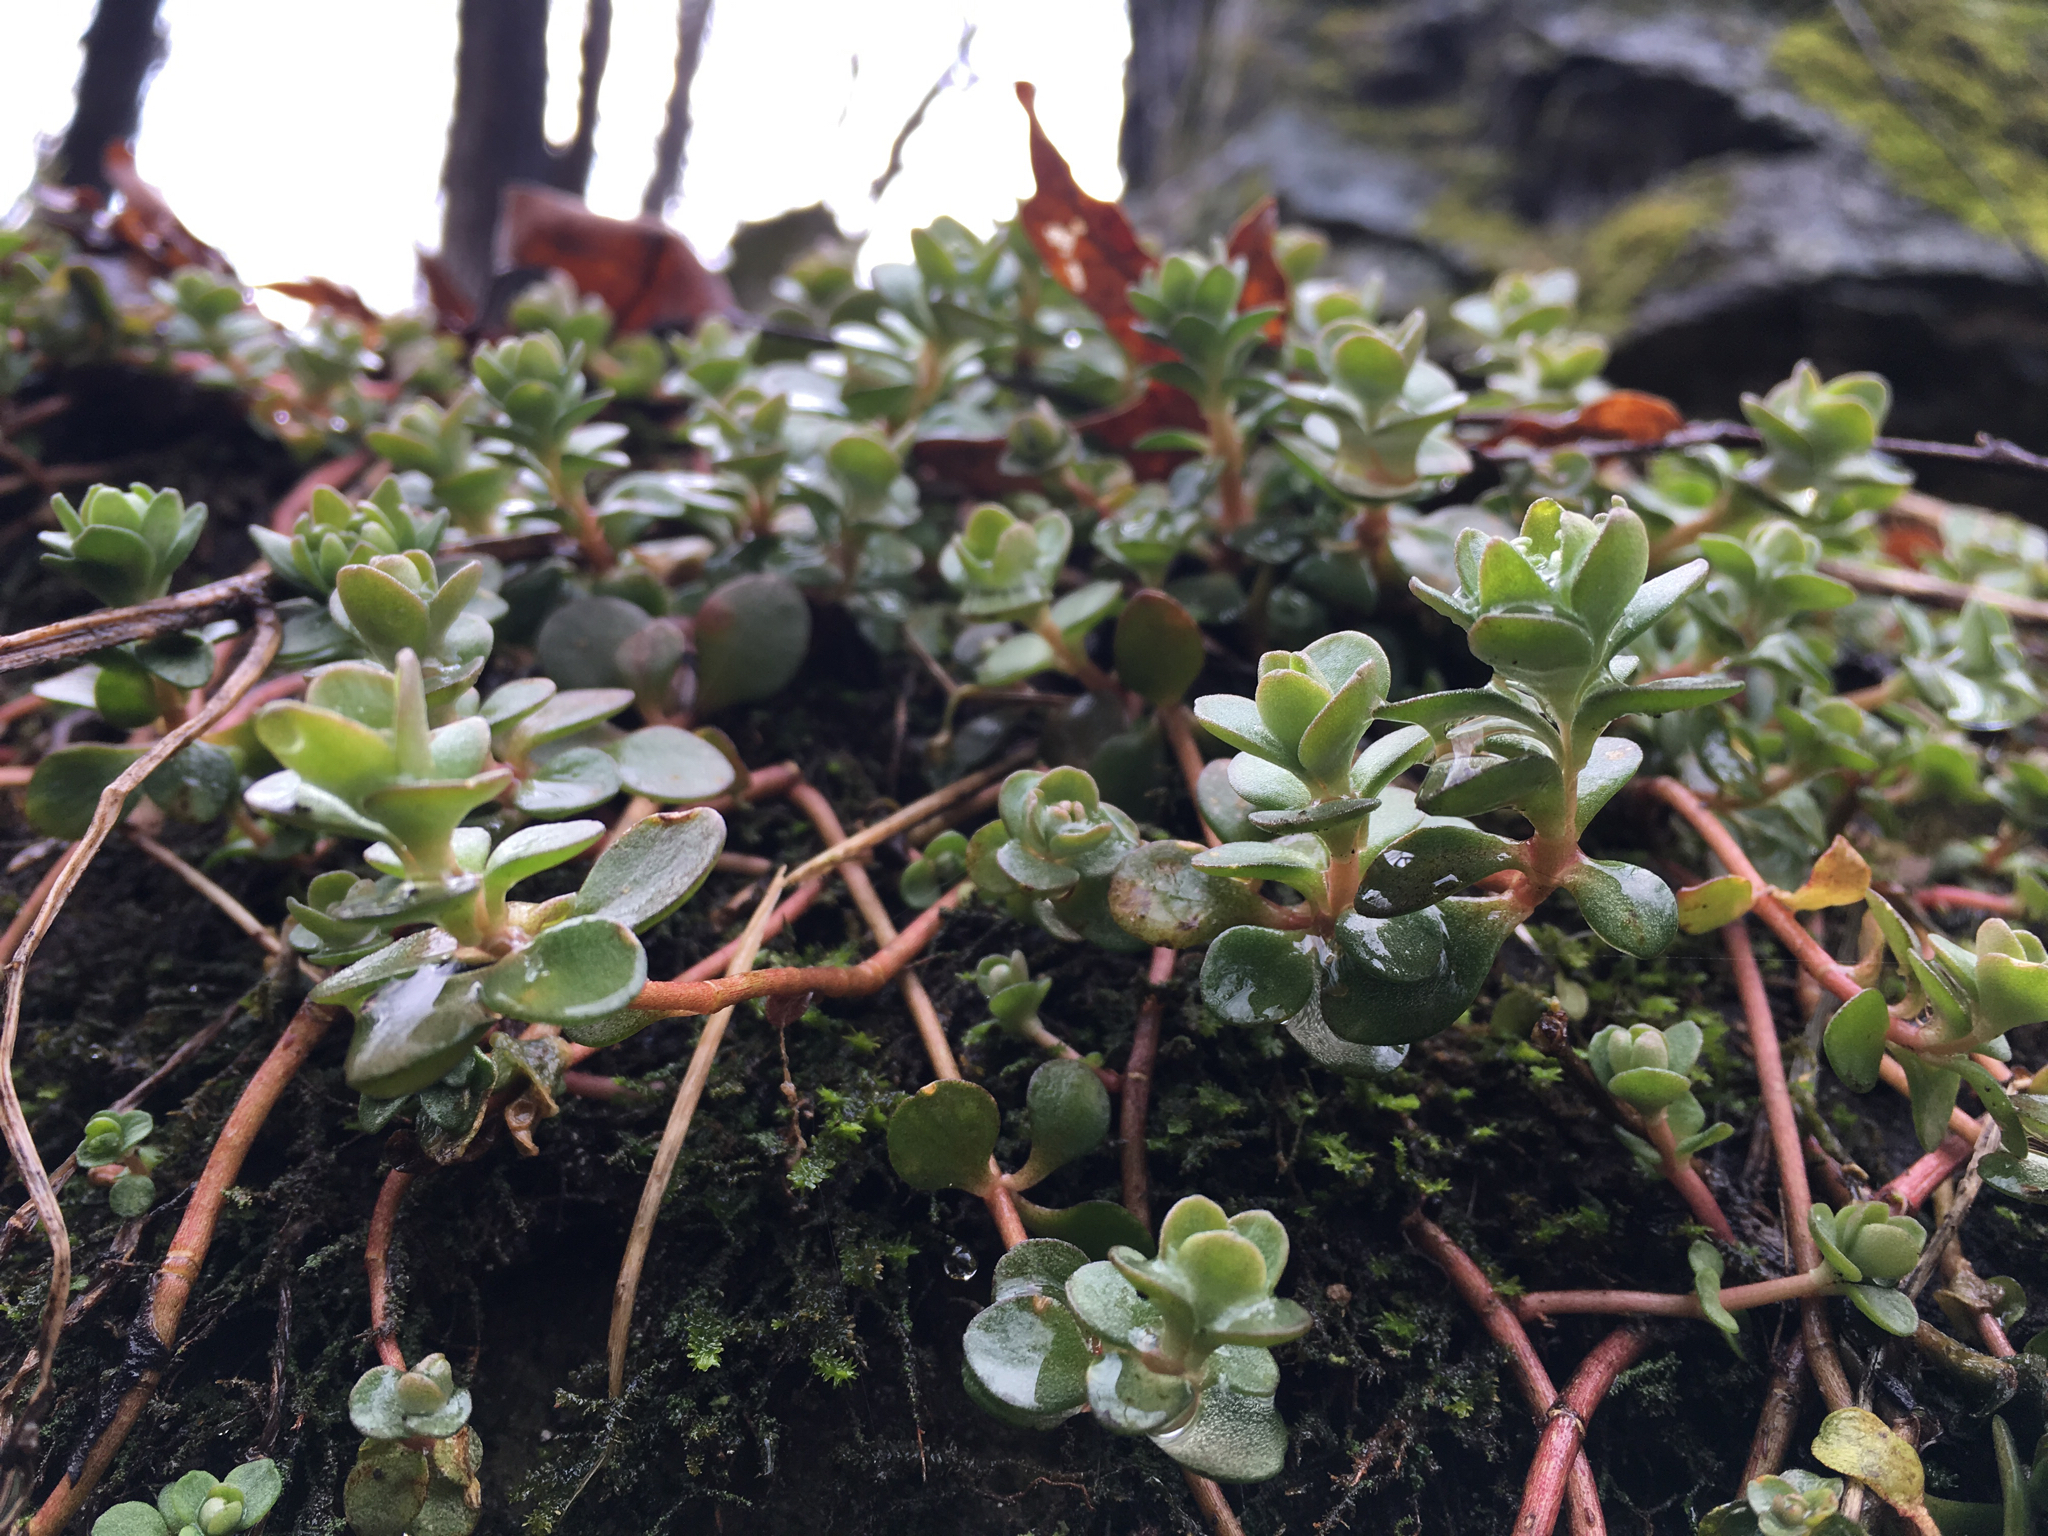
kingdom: Plantae
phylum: Tracheophyta
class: Magnoliopsida
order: Saxifragales
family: Crassulaceae
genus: Sedum
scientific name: Sedum ternatum
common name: Wild stonecrop
